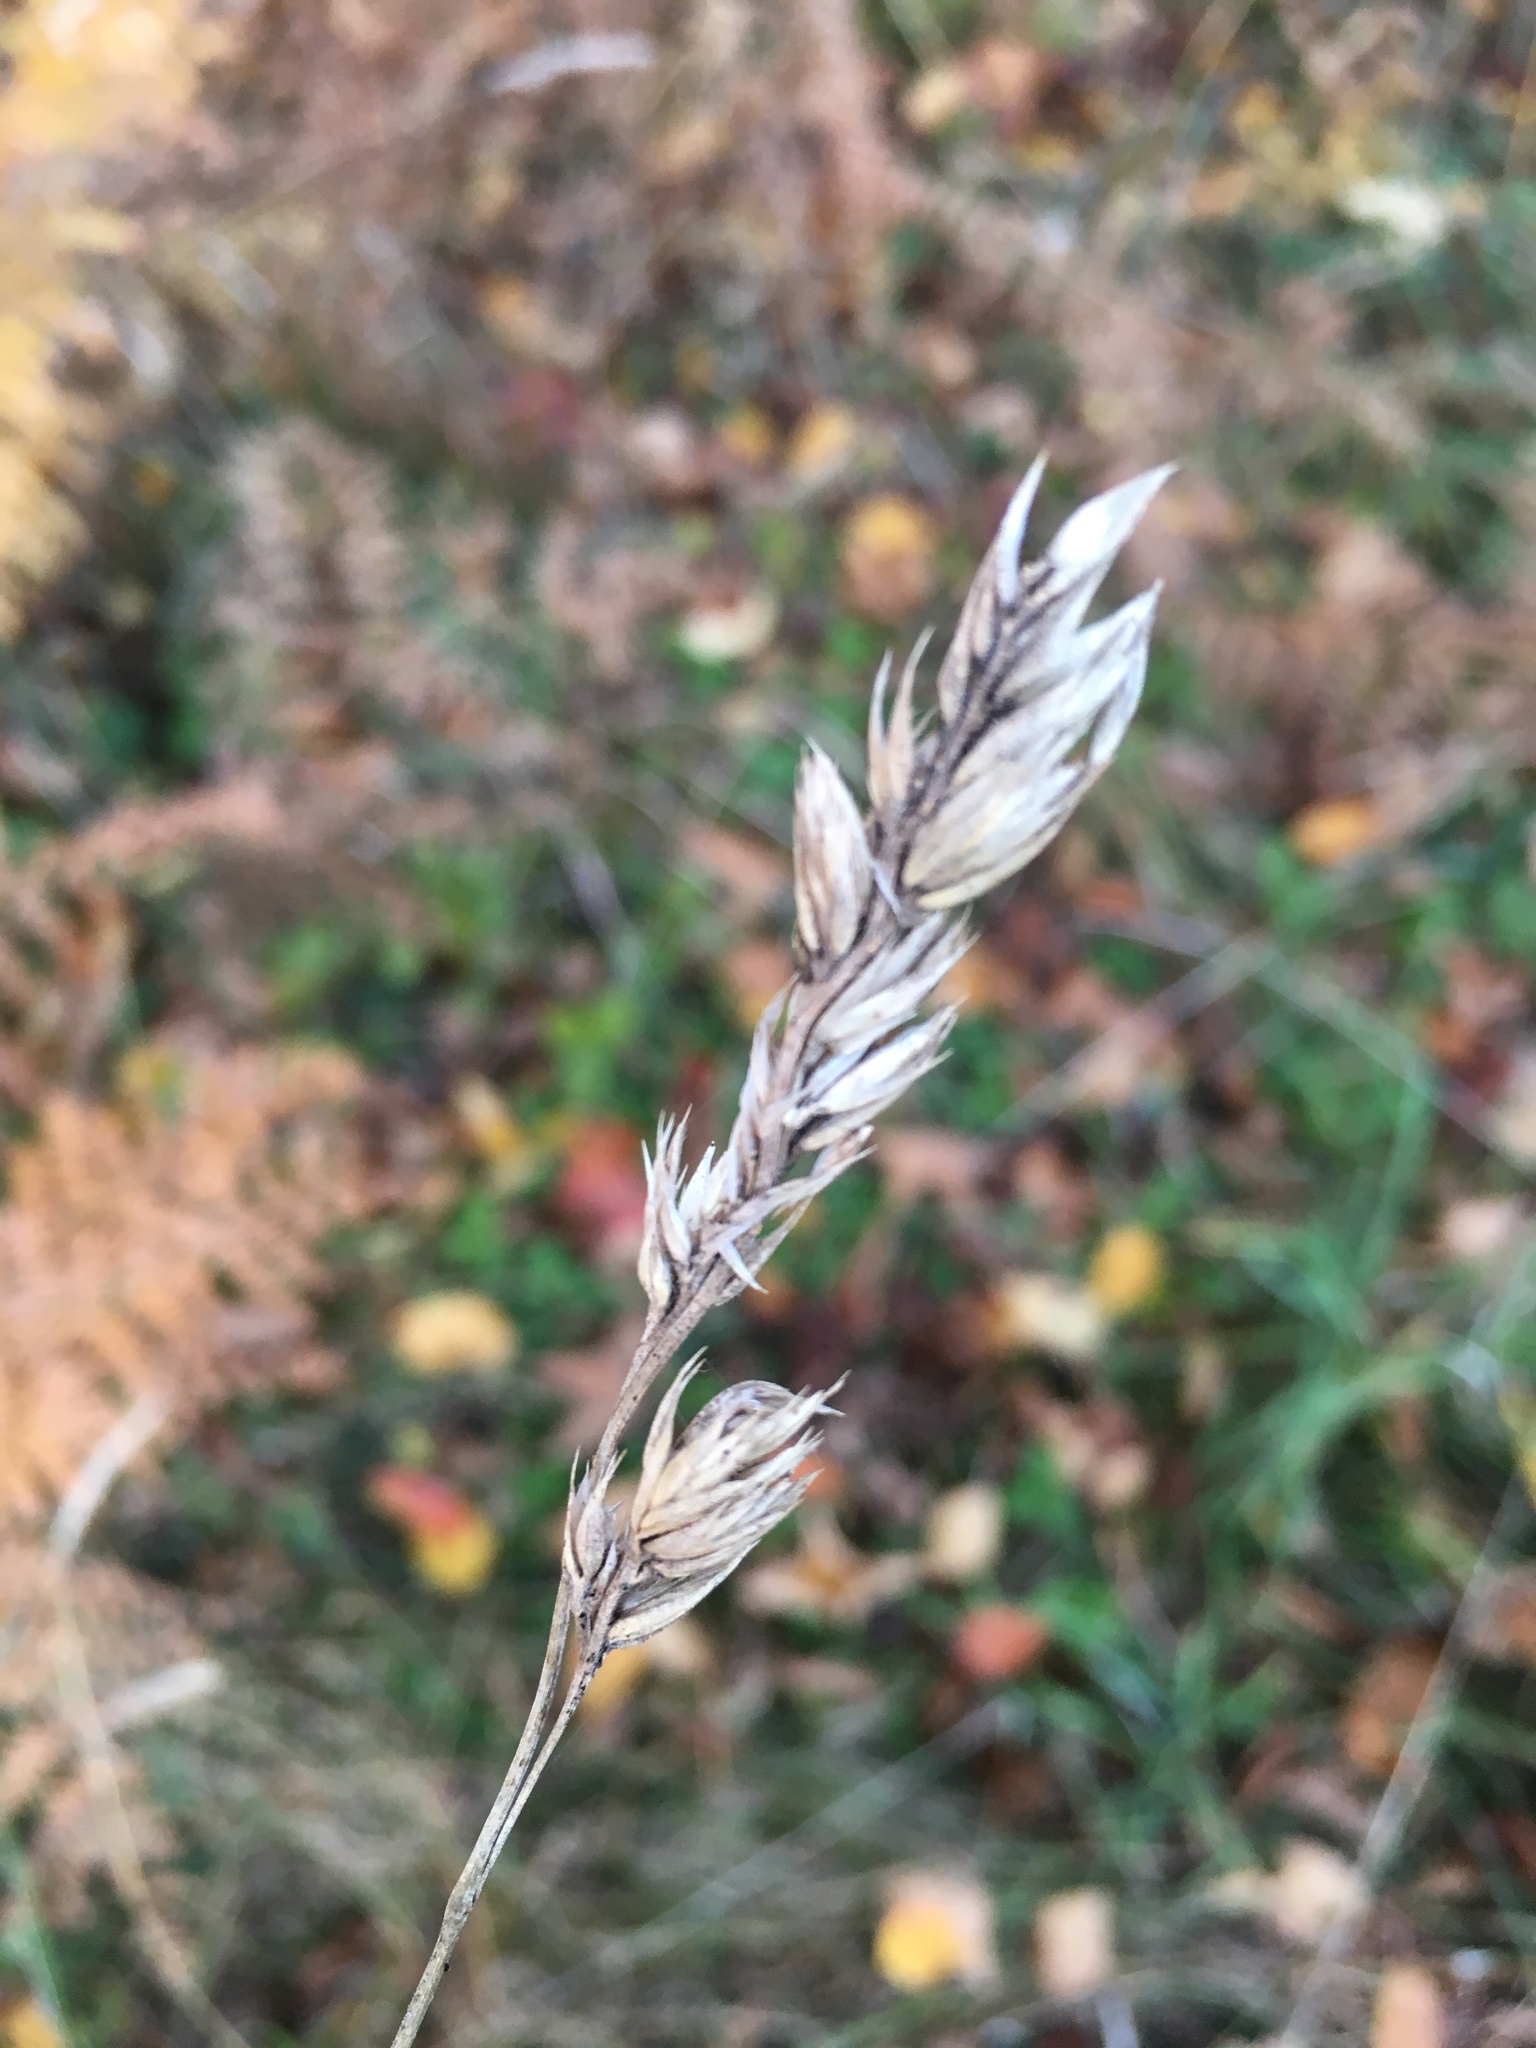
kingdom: Plantae
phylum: Tracheophyta
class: Liliopsida
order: Poales
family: Poaceae
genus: Dactylis
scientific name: Dactylis glomerata
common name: Orchardgrass
